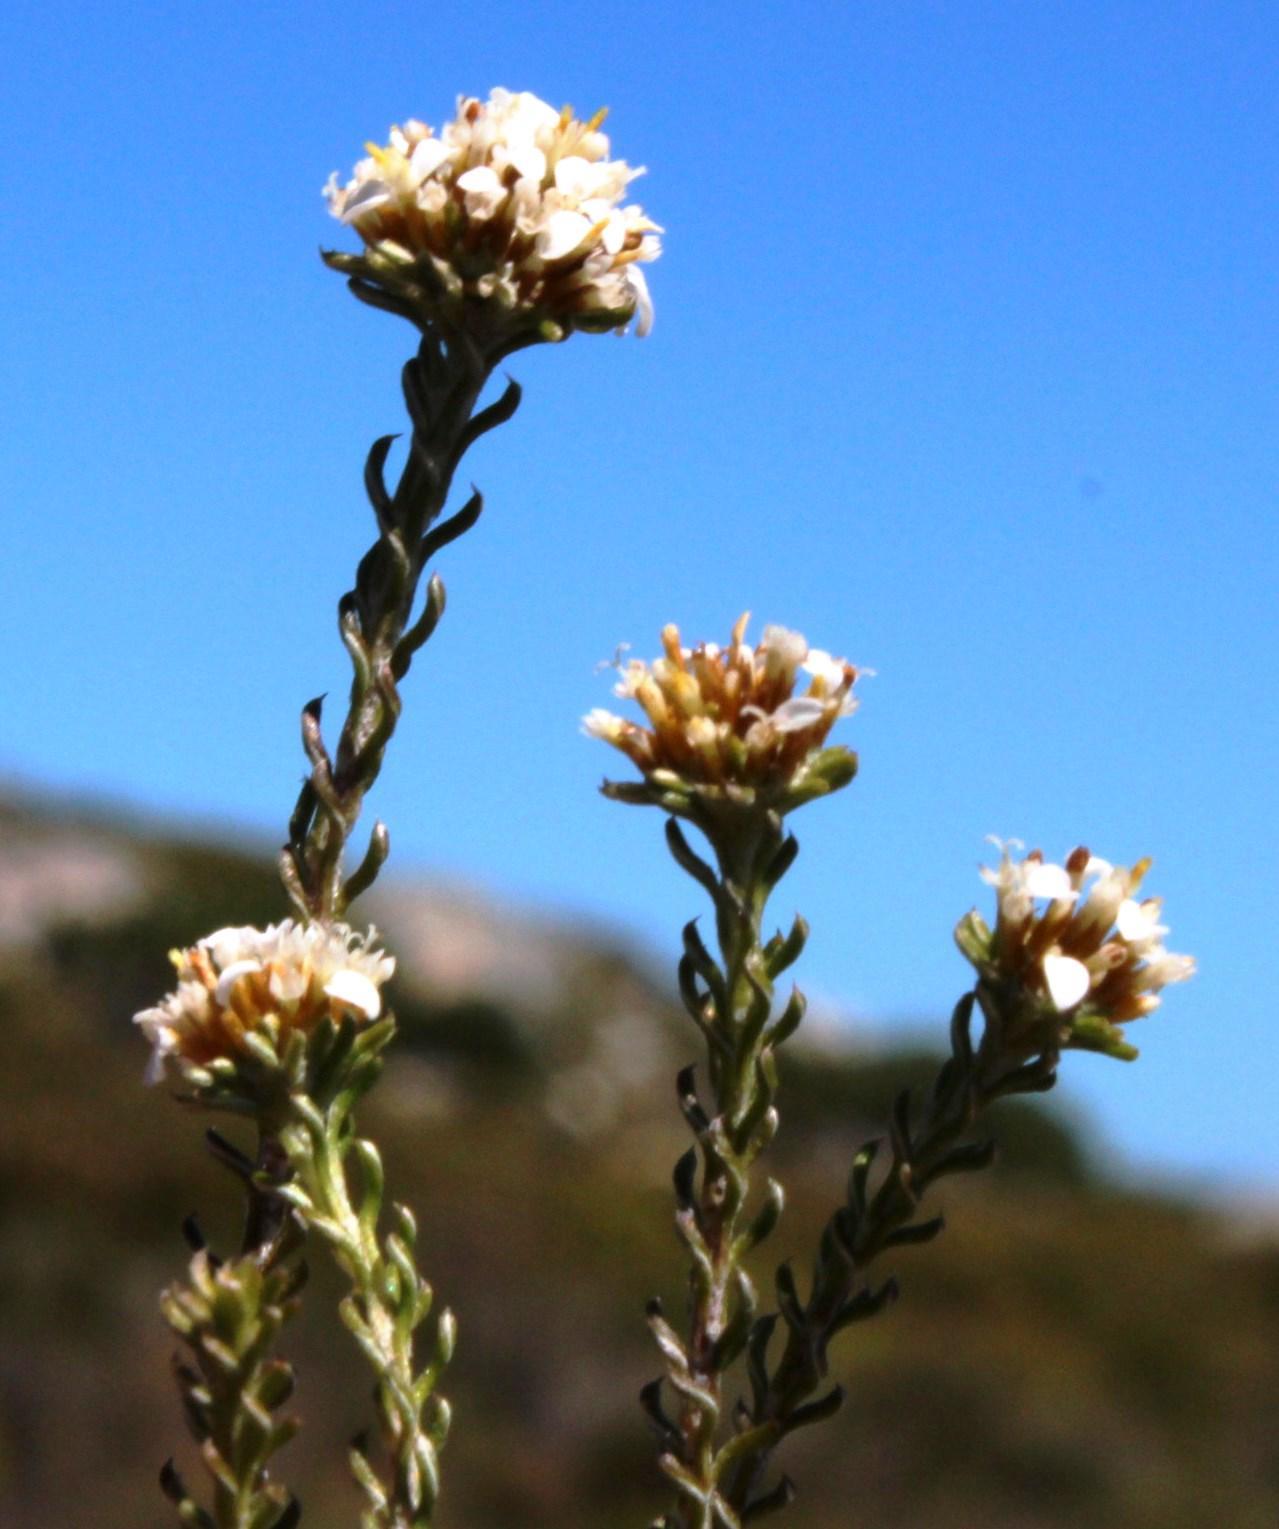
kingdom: Plantae
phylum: Tracheophyta
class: Magnoliopsida
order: Asterales
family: Asteraceae
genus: Disparago
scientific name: Disparago anomala
